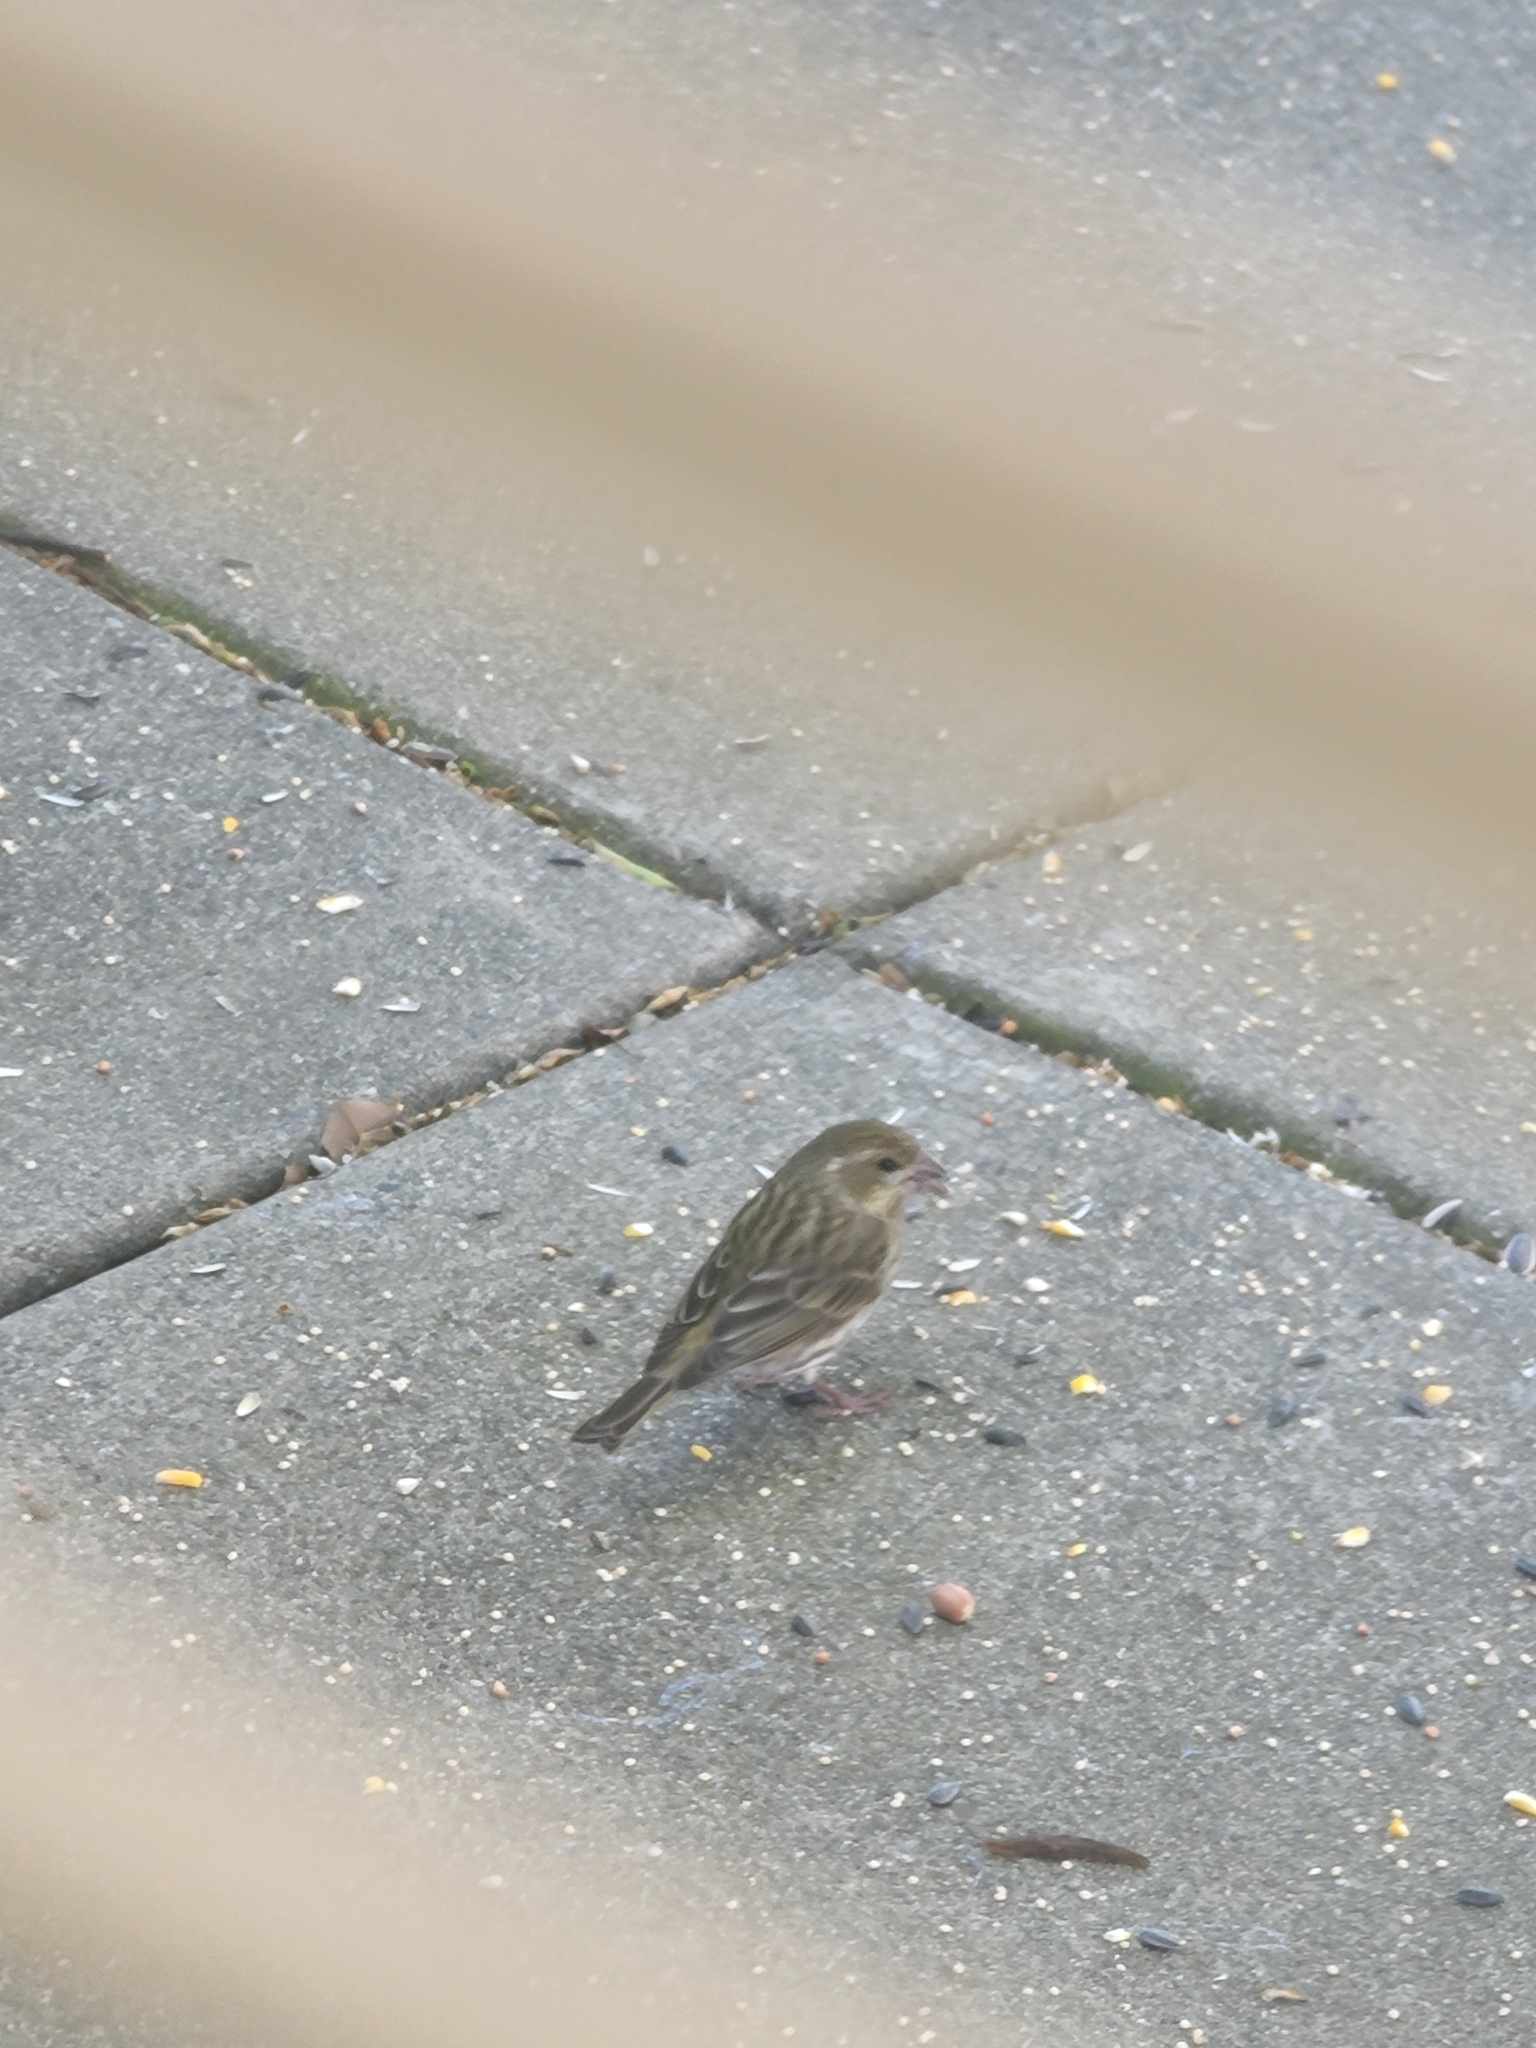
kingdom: Animalia
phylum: Chordata
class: Aves
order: Passeriformes
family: Fringillidae
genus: Haemorhous
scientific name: Haemorhous purpureus
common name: Purple finch
